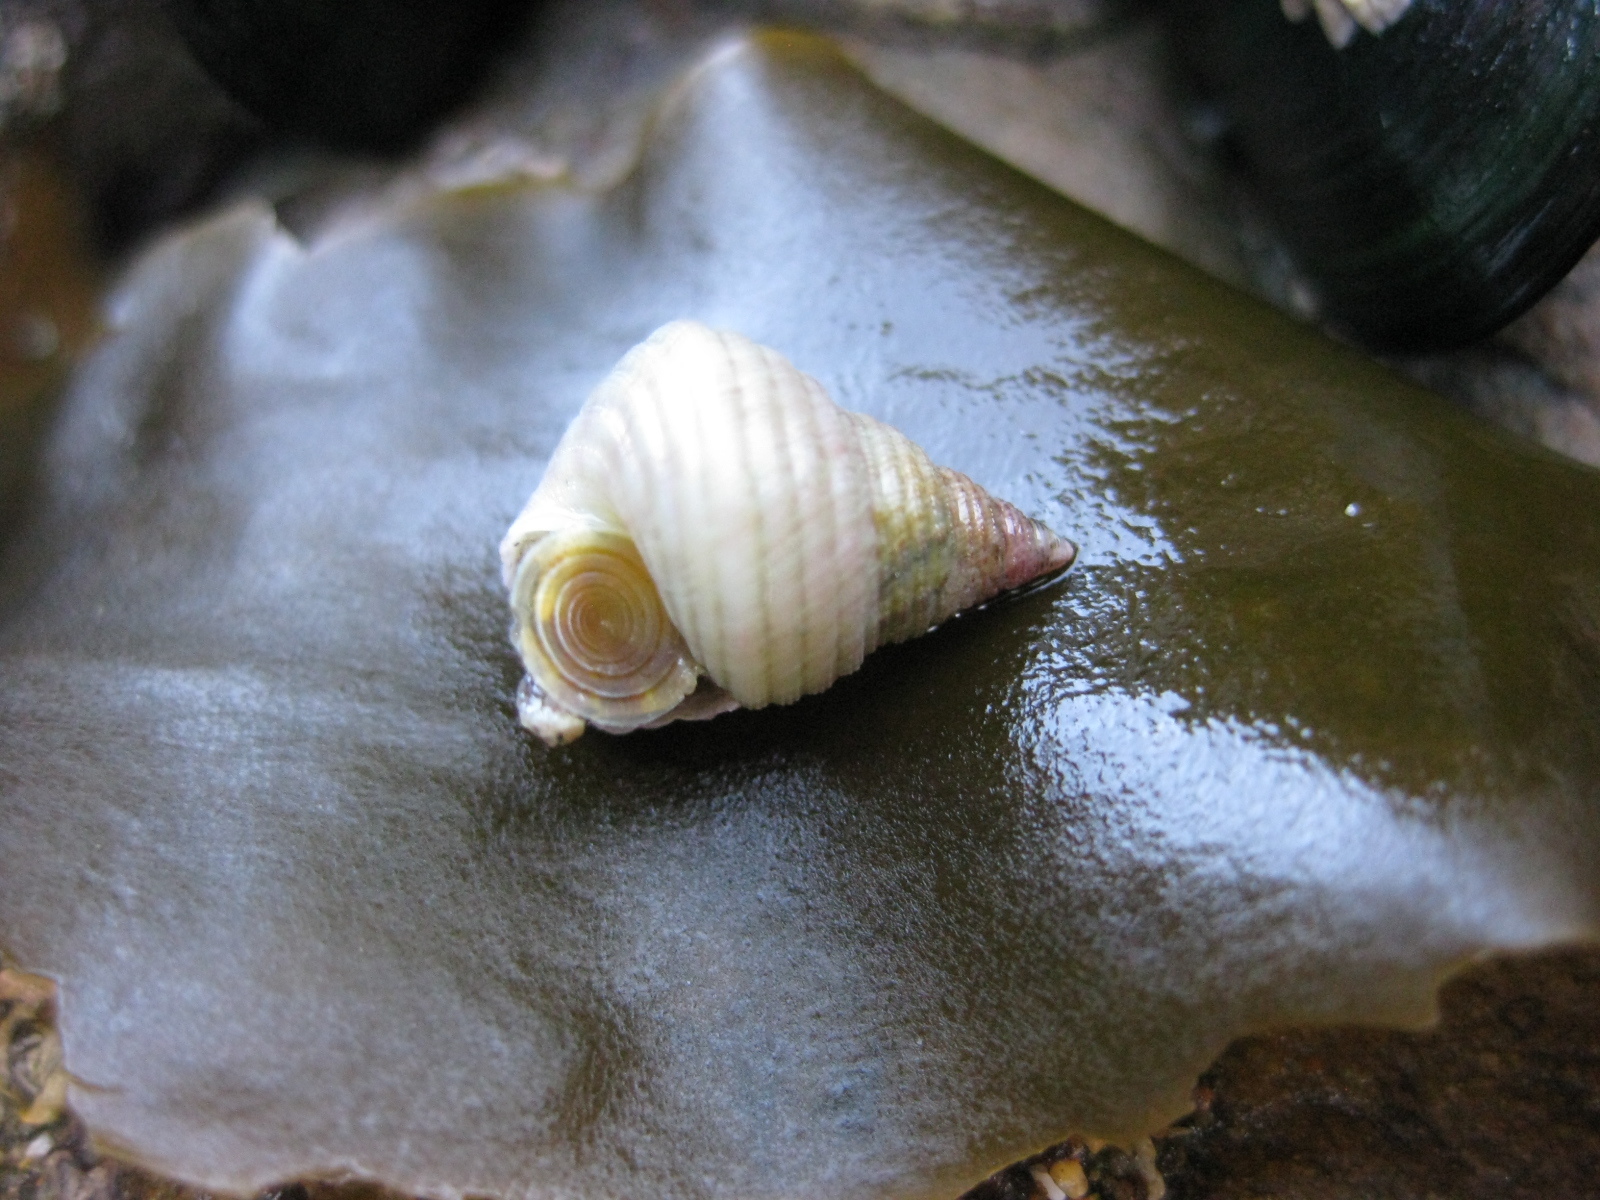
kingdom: Animalia
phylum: Mollusca
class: Gastropoda
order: Trochida
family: Trochidae
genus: Micrelenchus
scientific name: Micrelenchus purpureus
